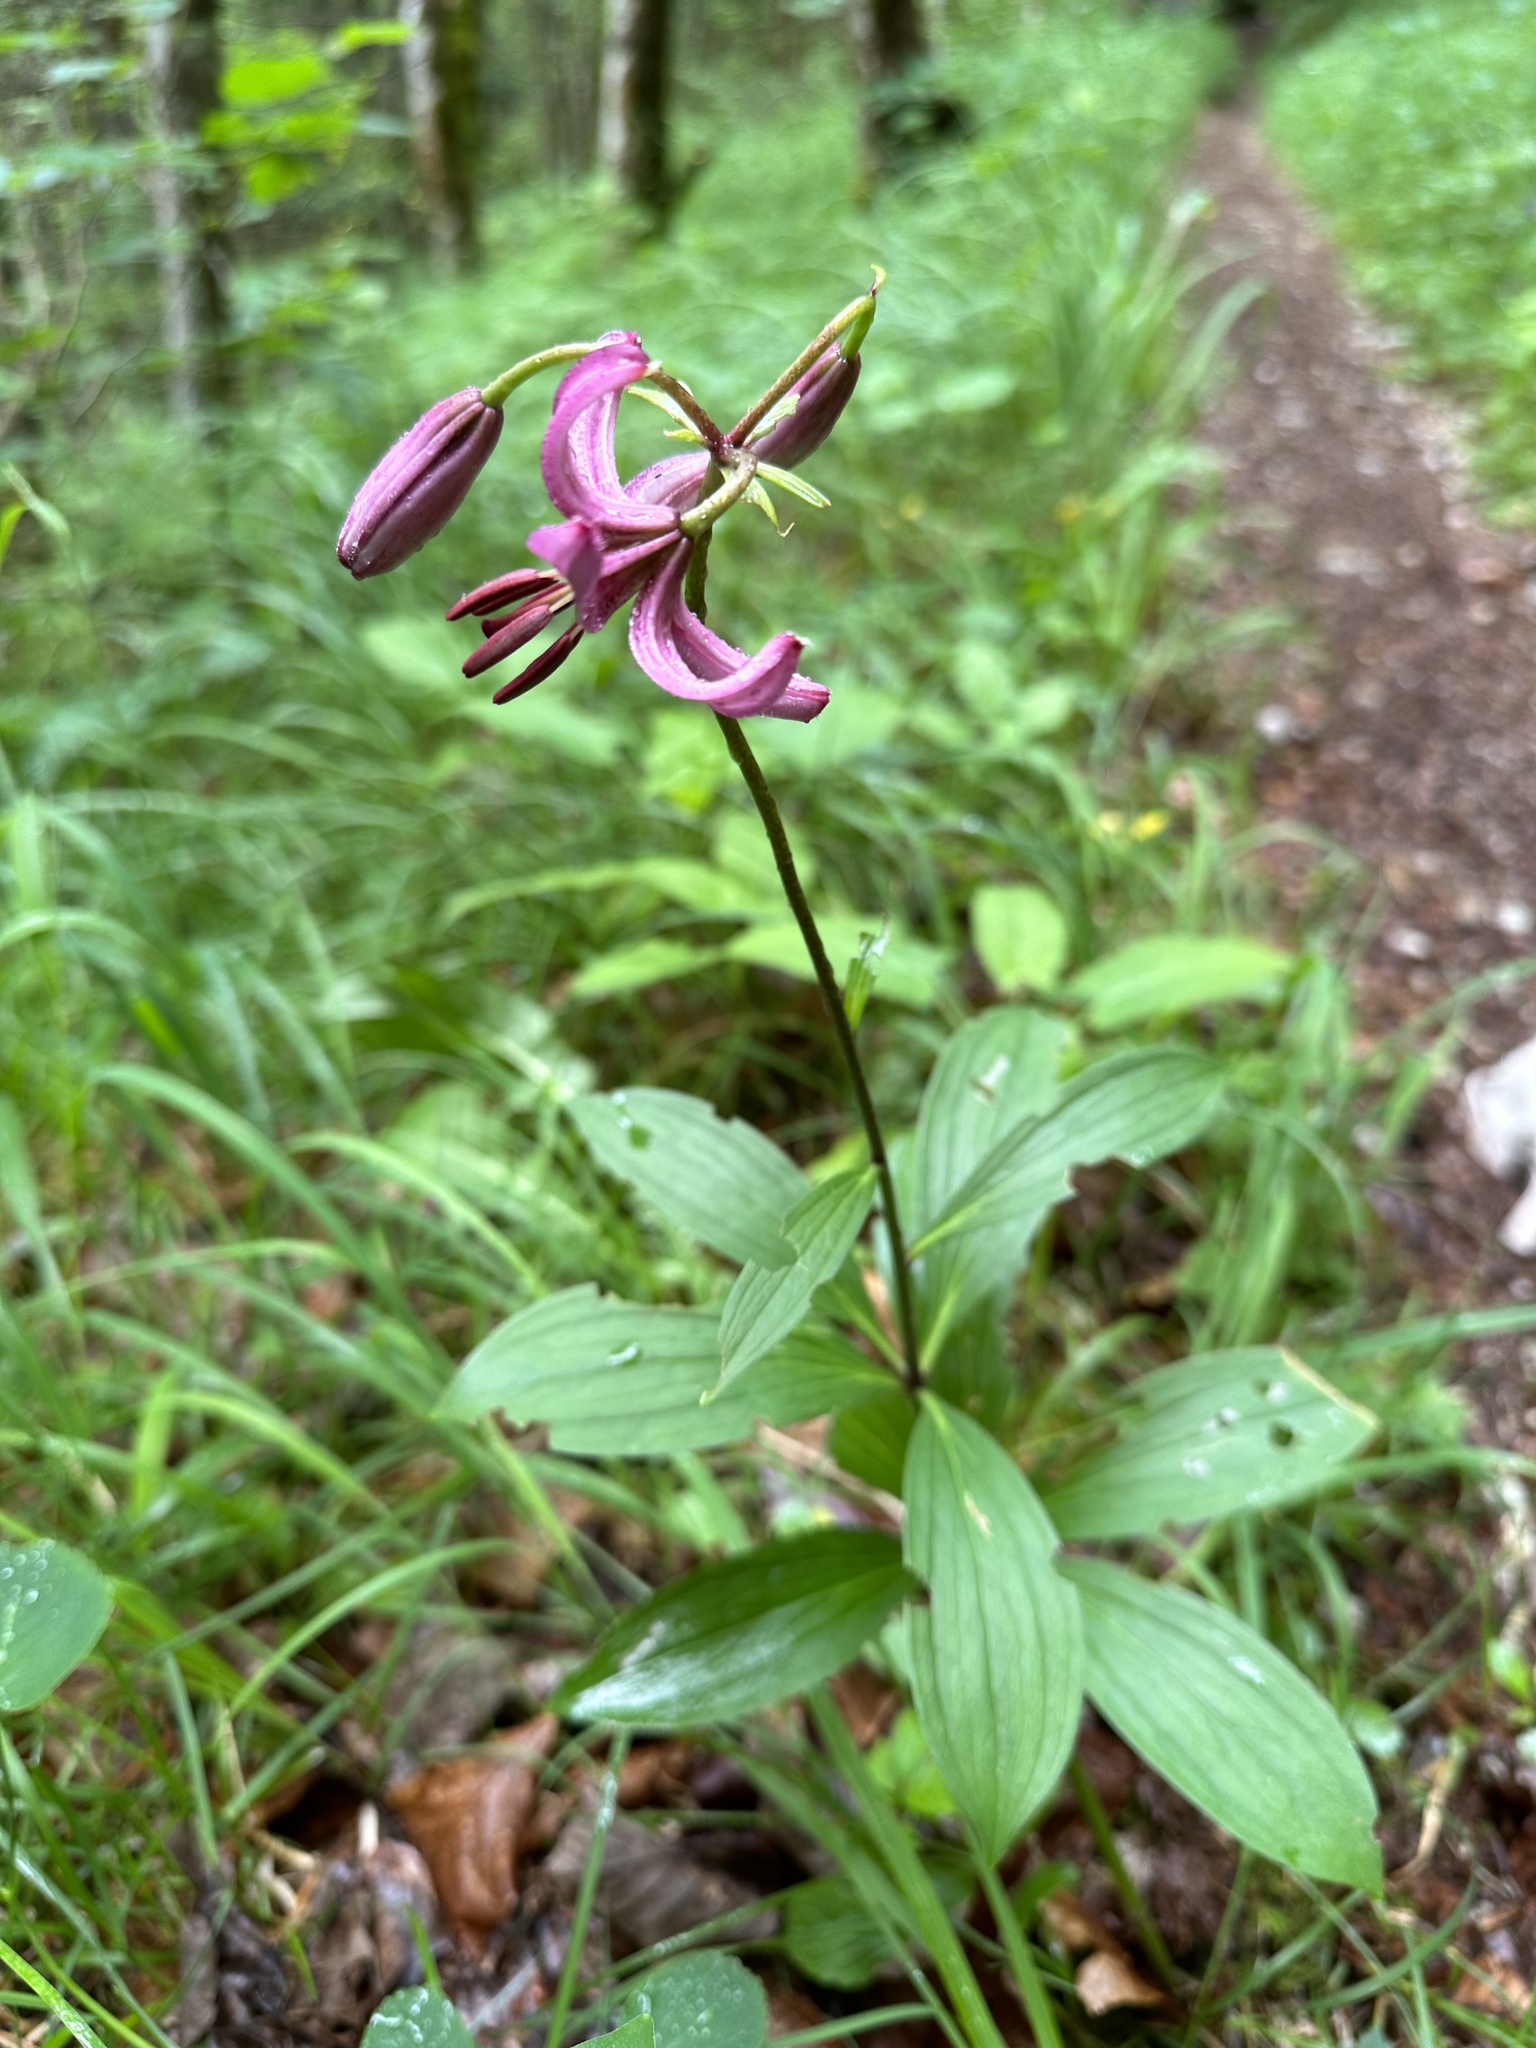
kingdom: Plantae
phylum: Tracheophyta
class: Liliopsida
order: Liliales
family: Liliaceae
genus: Lilium
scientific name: Lilium martagon
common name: Martagon lily
